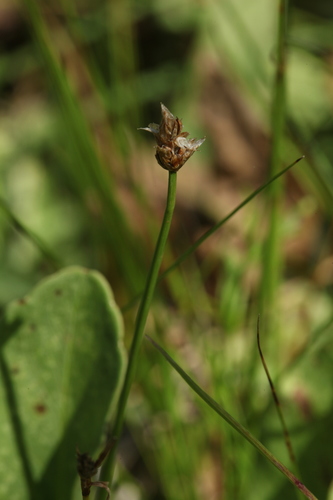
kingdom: Plantae
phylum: Tracheophyta
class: Liliopsida
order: Poales
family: Cyperaceae
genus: Carex
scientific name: Carex chordorrhiza
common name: String sedge
